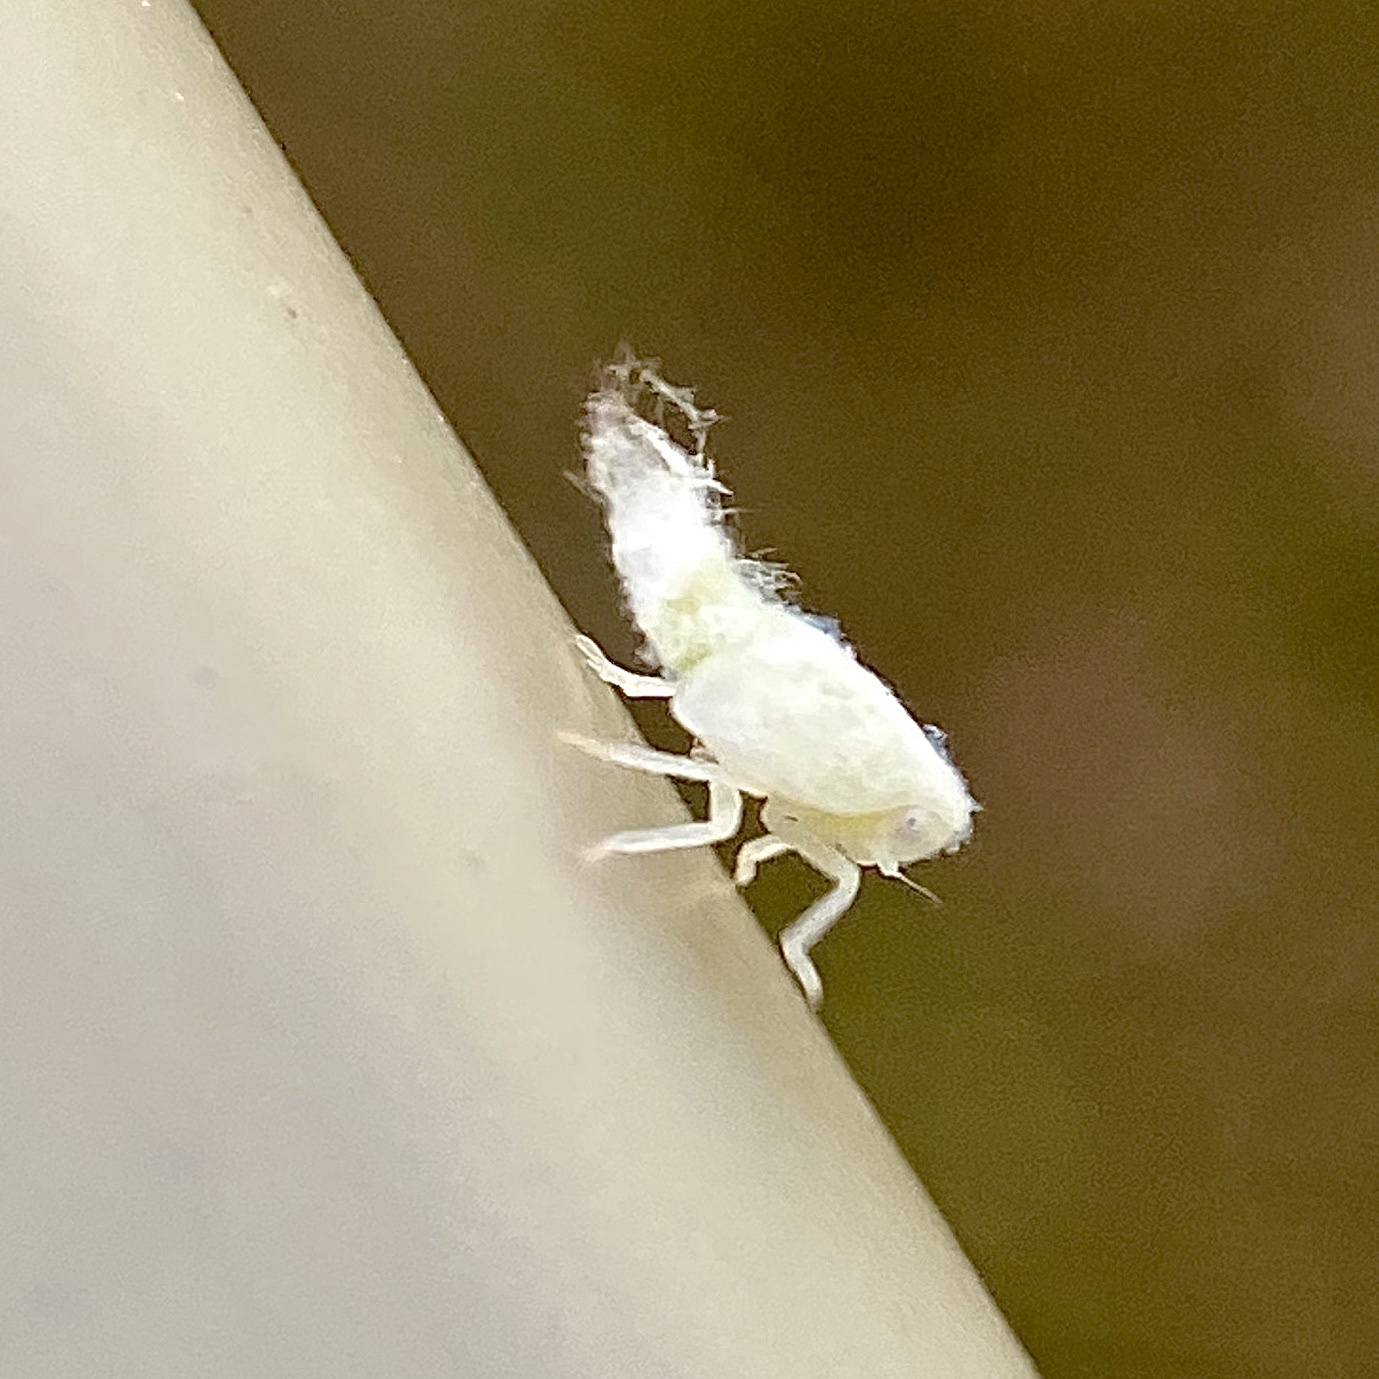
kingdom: Animalia
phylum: Arthropoda
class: Insecta
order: Hemiptera
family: Flatidae
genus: Metcalfa
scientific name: Metcalfa pruinosa
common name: Citrus flatid planthopper
